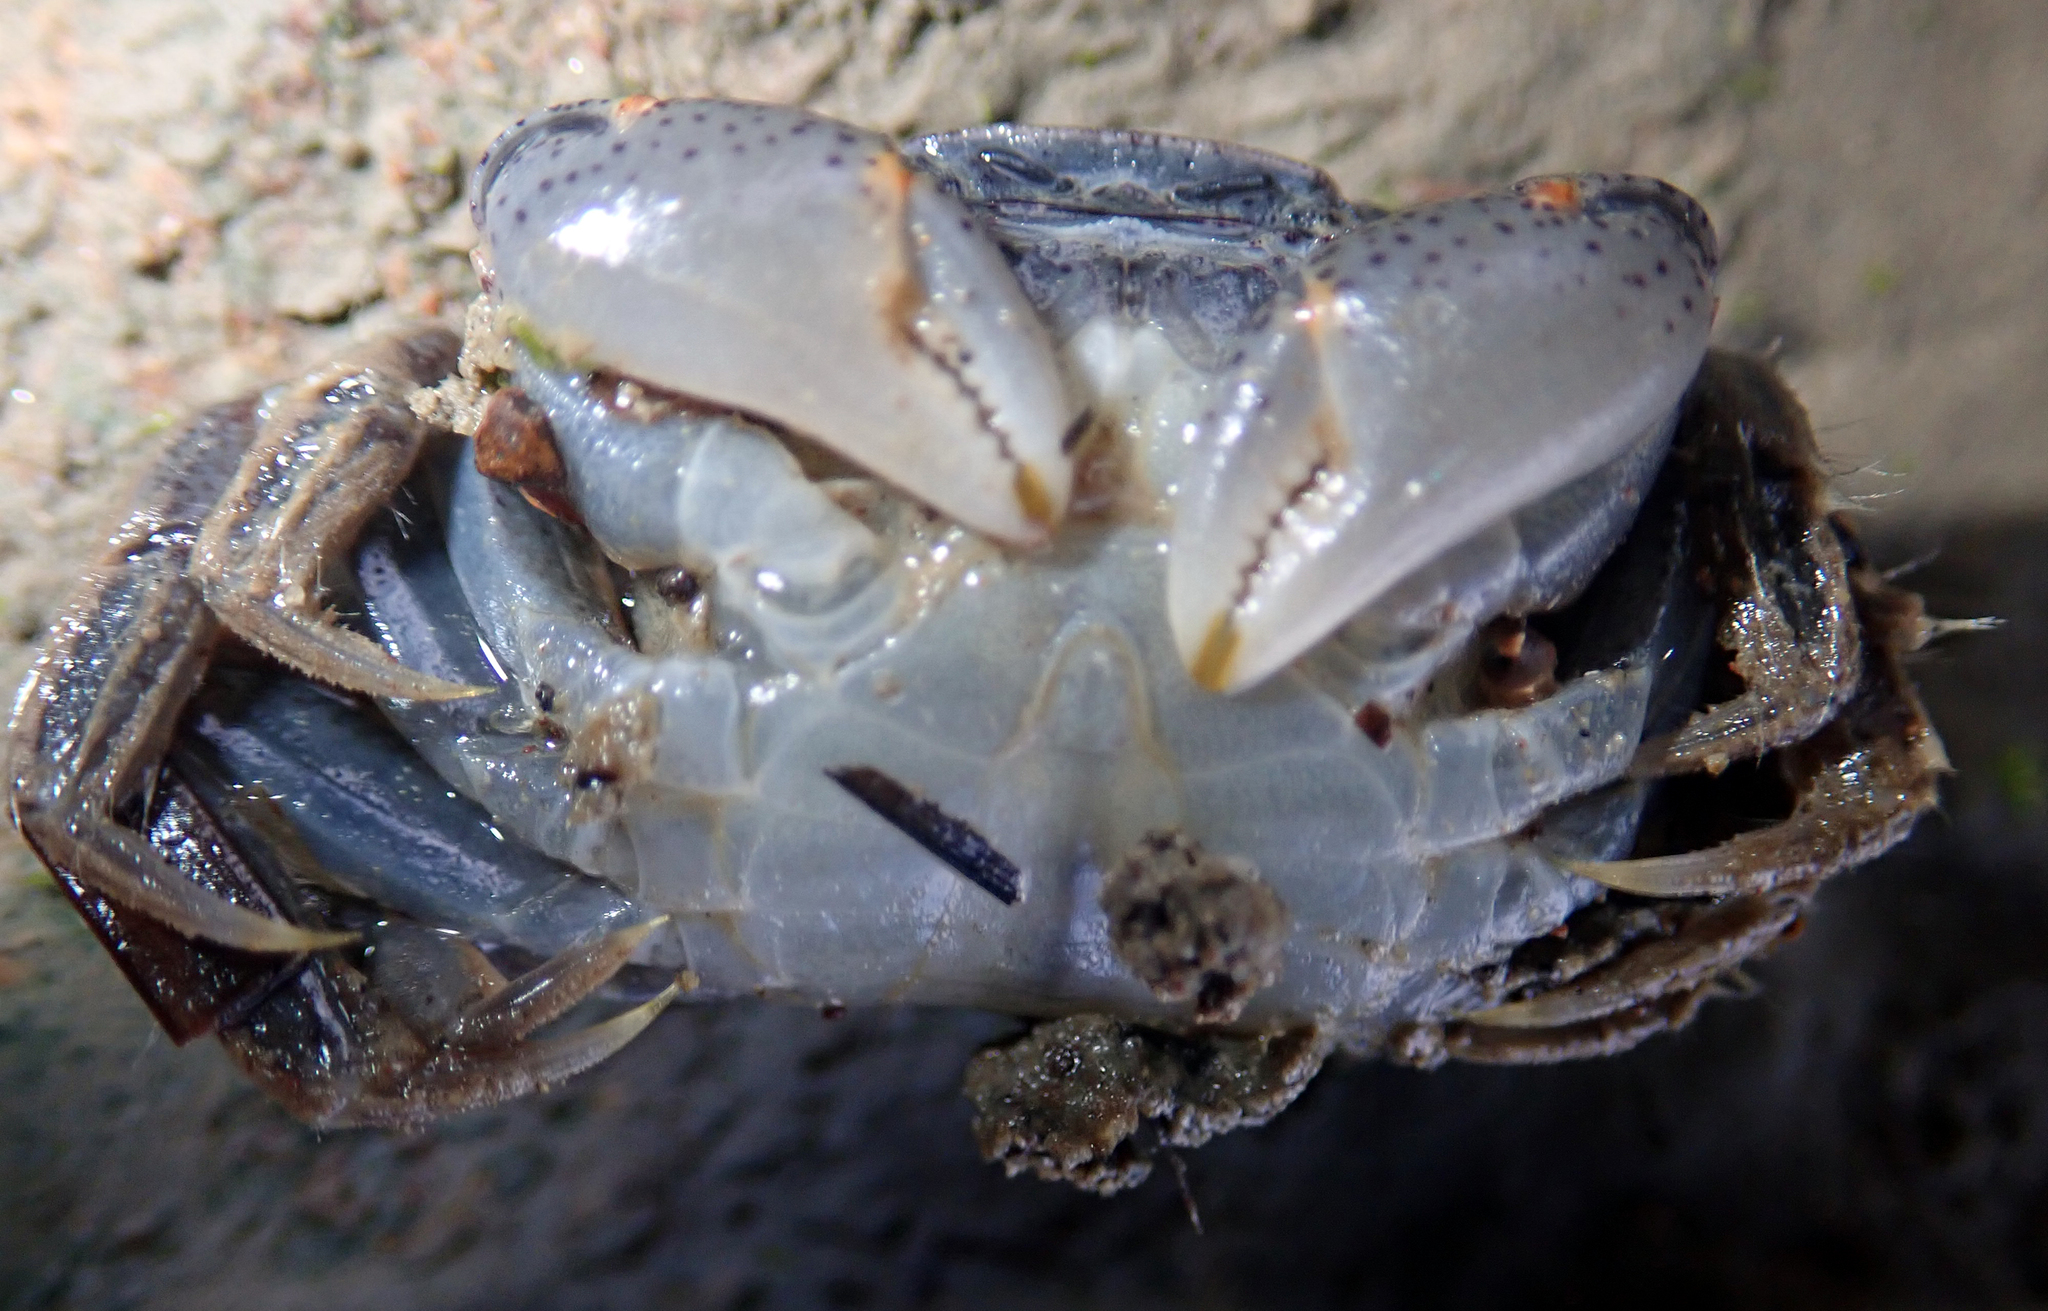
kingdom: Animalia
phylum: Arthropoda
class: Malacostraca
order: Decapoda
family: Varunidae
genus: Hemigrapsus
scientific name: Hemigrapsus crenulatus
